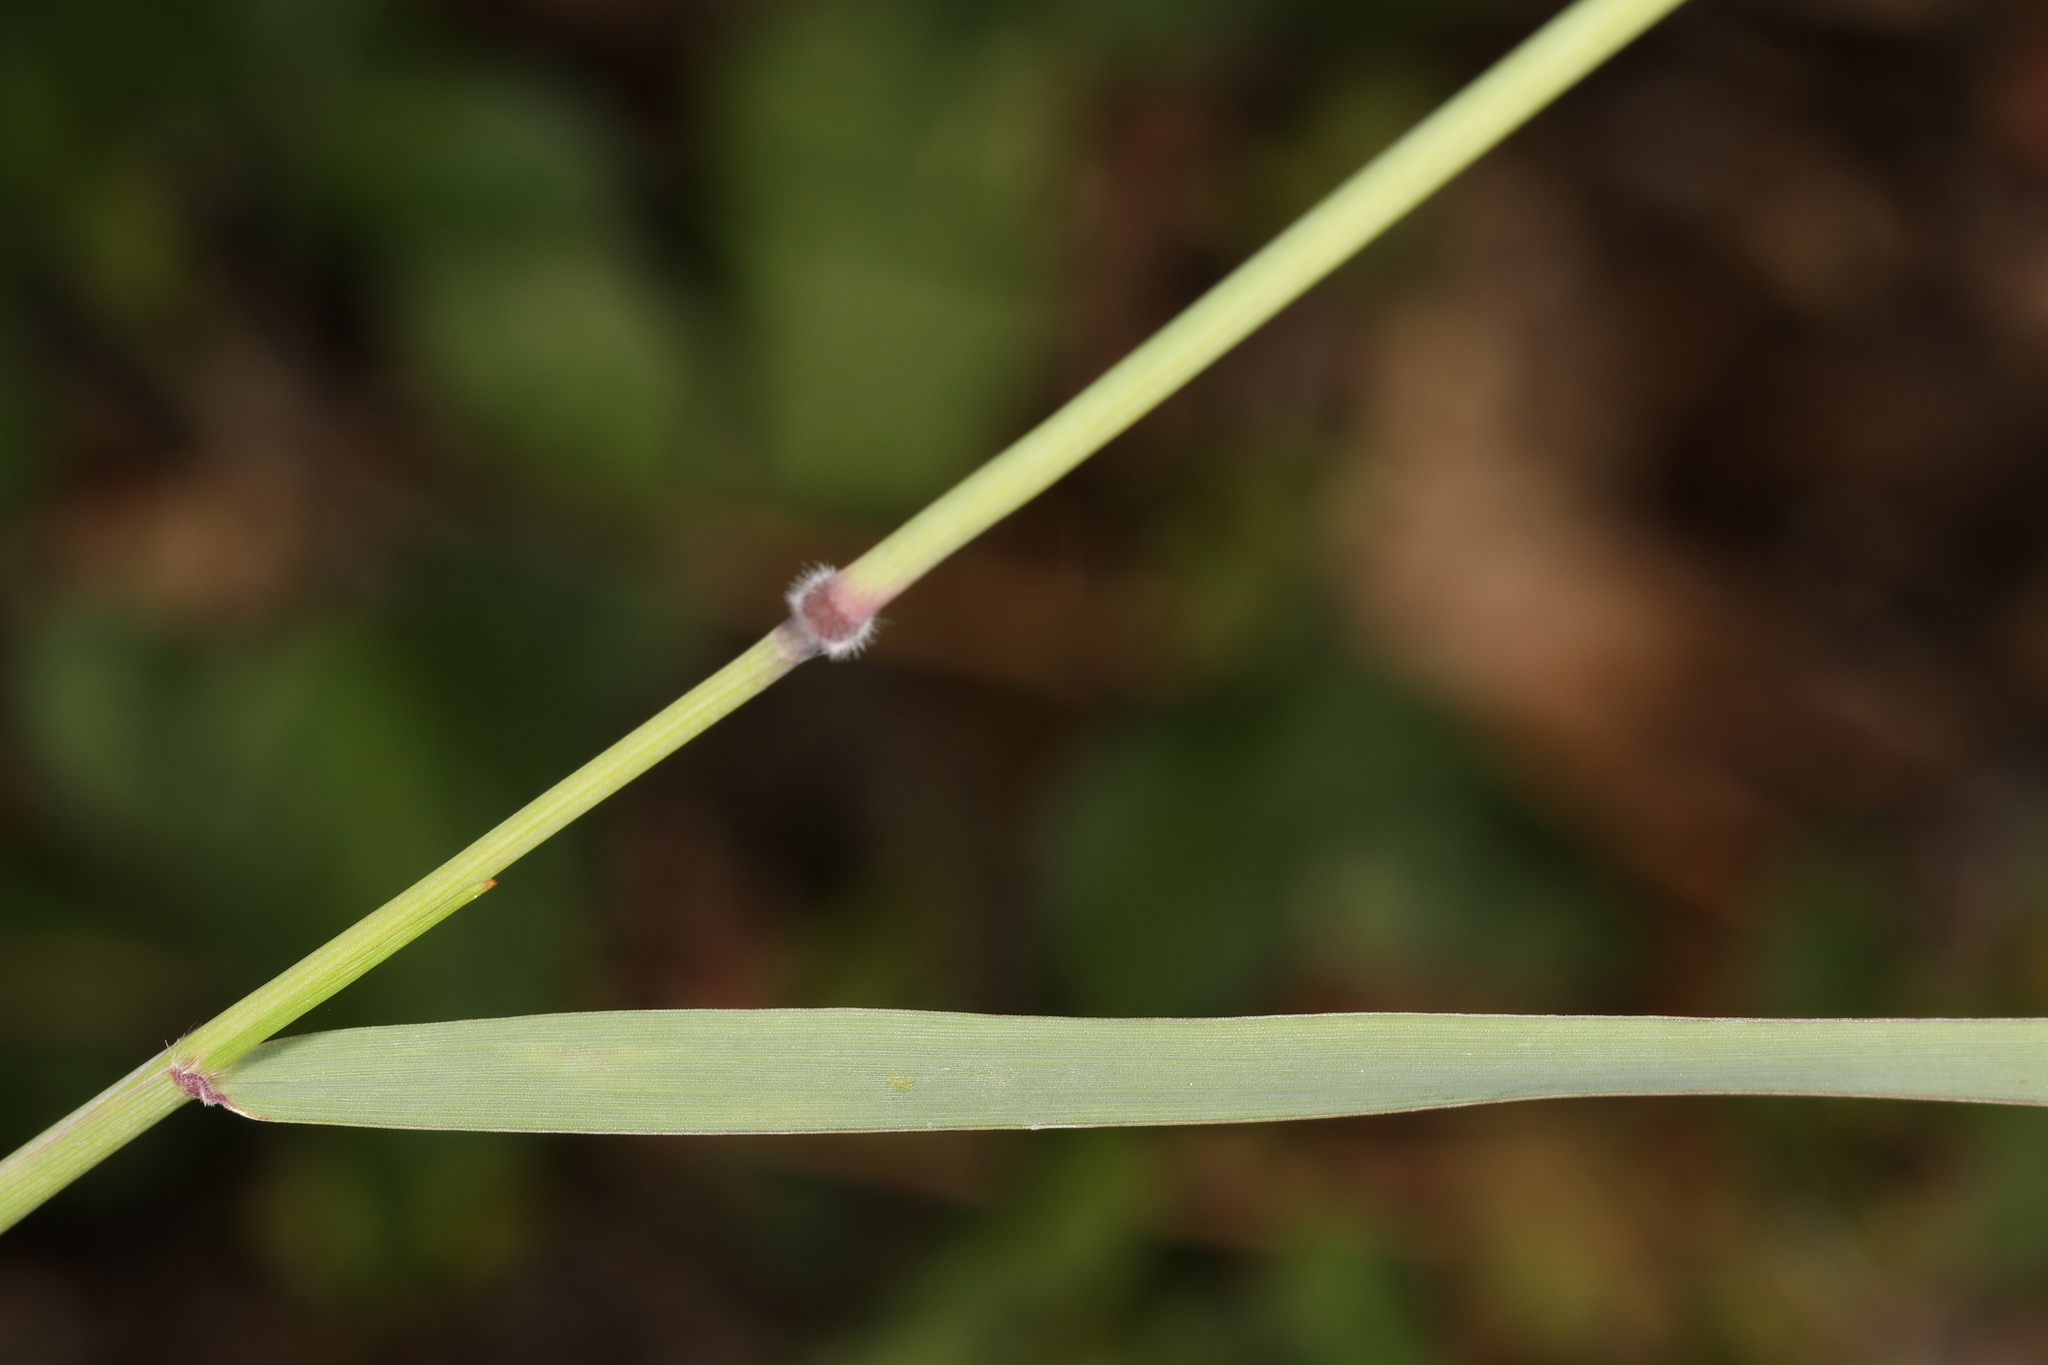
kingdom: Plantae
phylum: Tracheophyta
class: Liliopsida
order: Poales
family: Poaceae
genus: Melinis
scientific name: Melinis repens
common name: Rose natal grass
